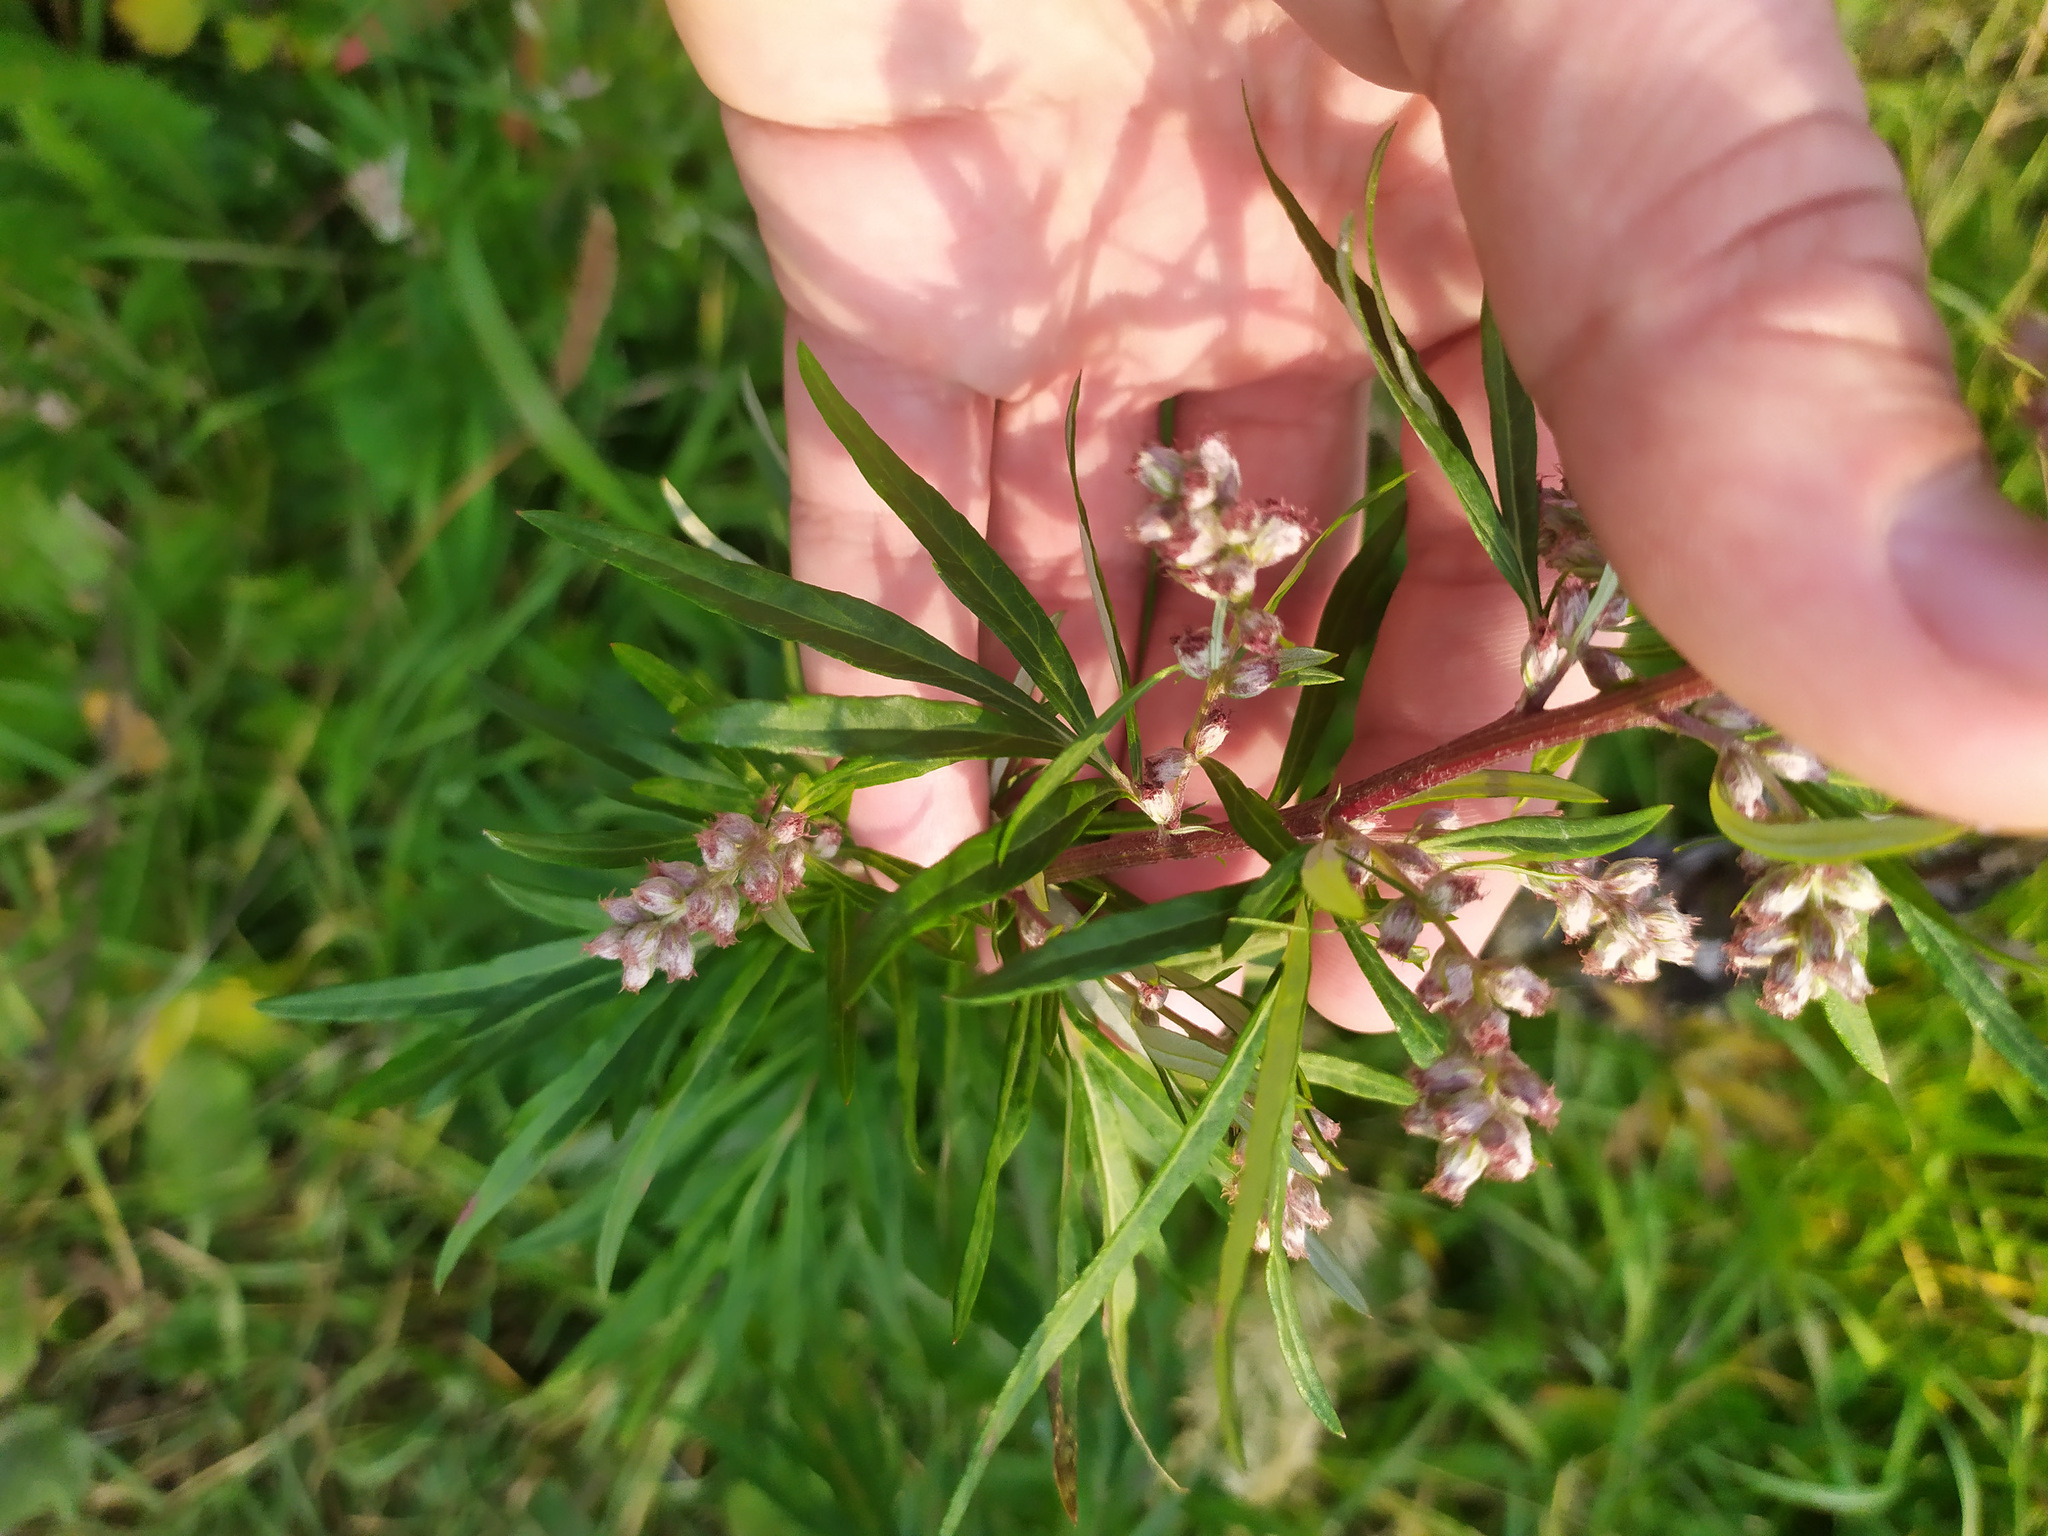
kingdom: Plantae
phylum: Tracheophyta
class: Magnoliopsida
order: Asterales
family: Asteraceae
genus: Artemisia
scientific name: Artemisia vulgaris
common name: Mugwort
